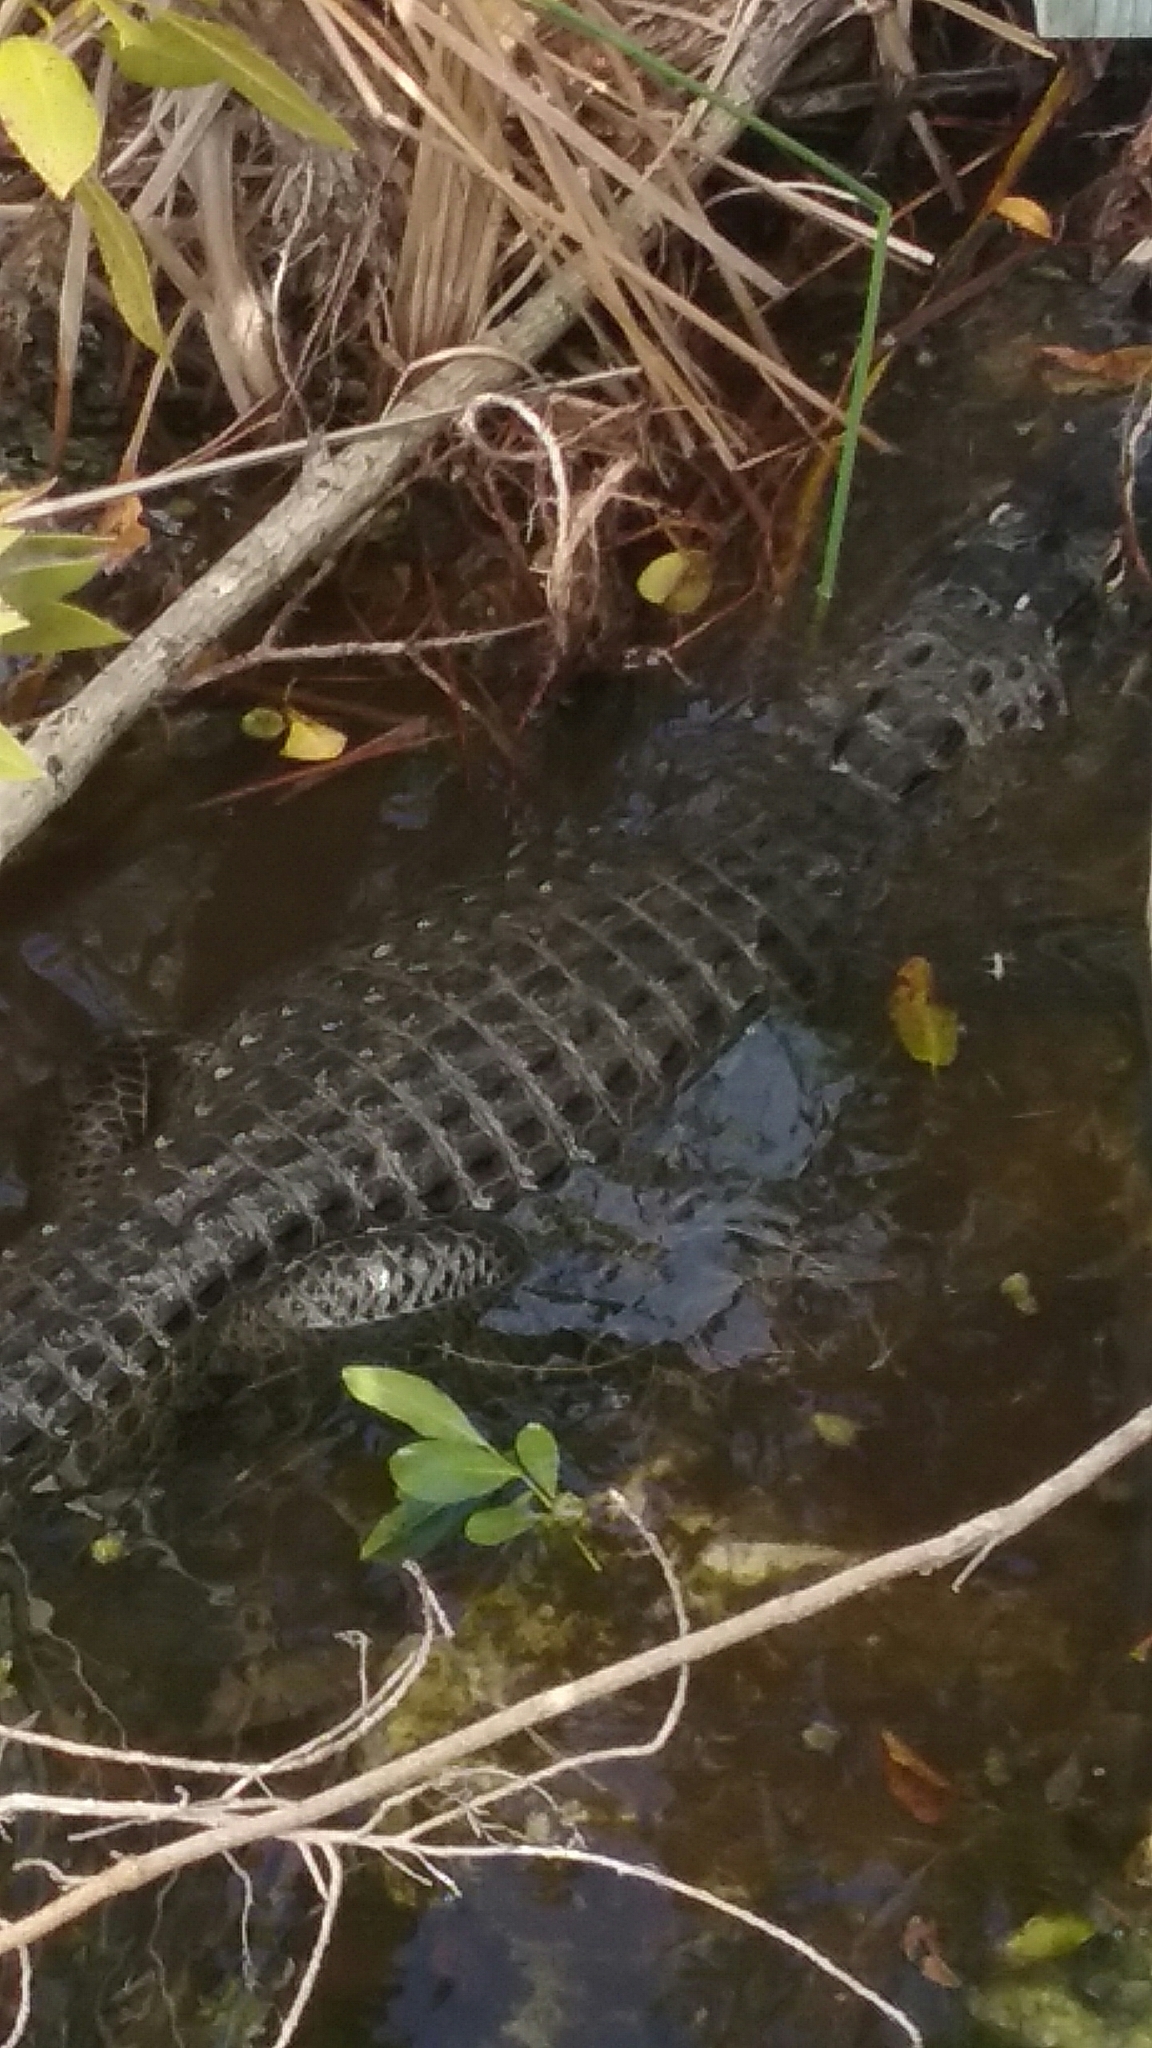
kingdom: Animalia
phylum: Chordata
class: Crocodylia
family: Alligatoridae
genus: Alligator
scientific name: Alligator mississippiensis
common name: American alligator
